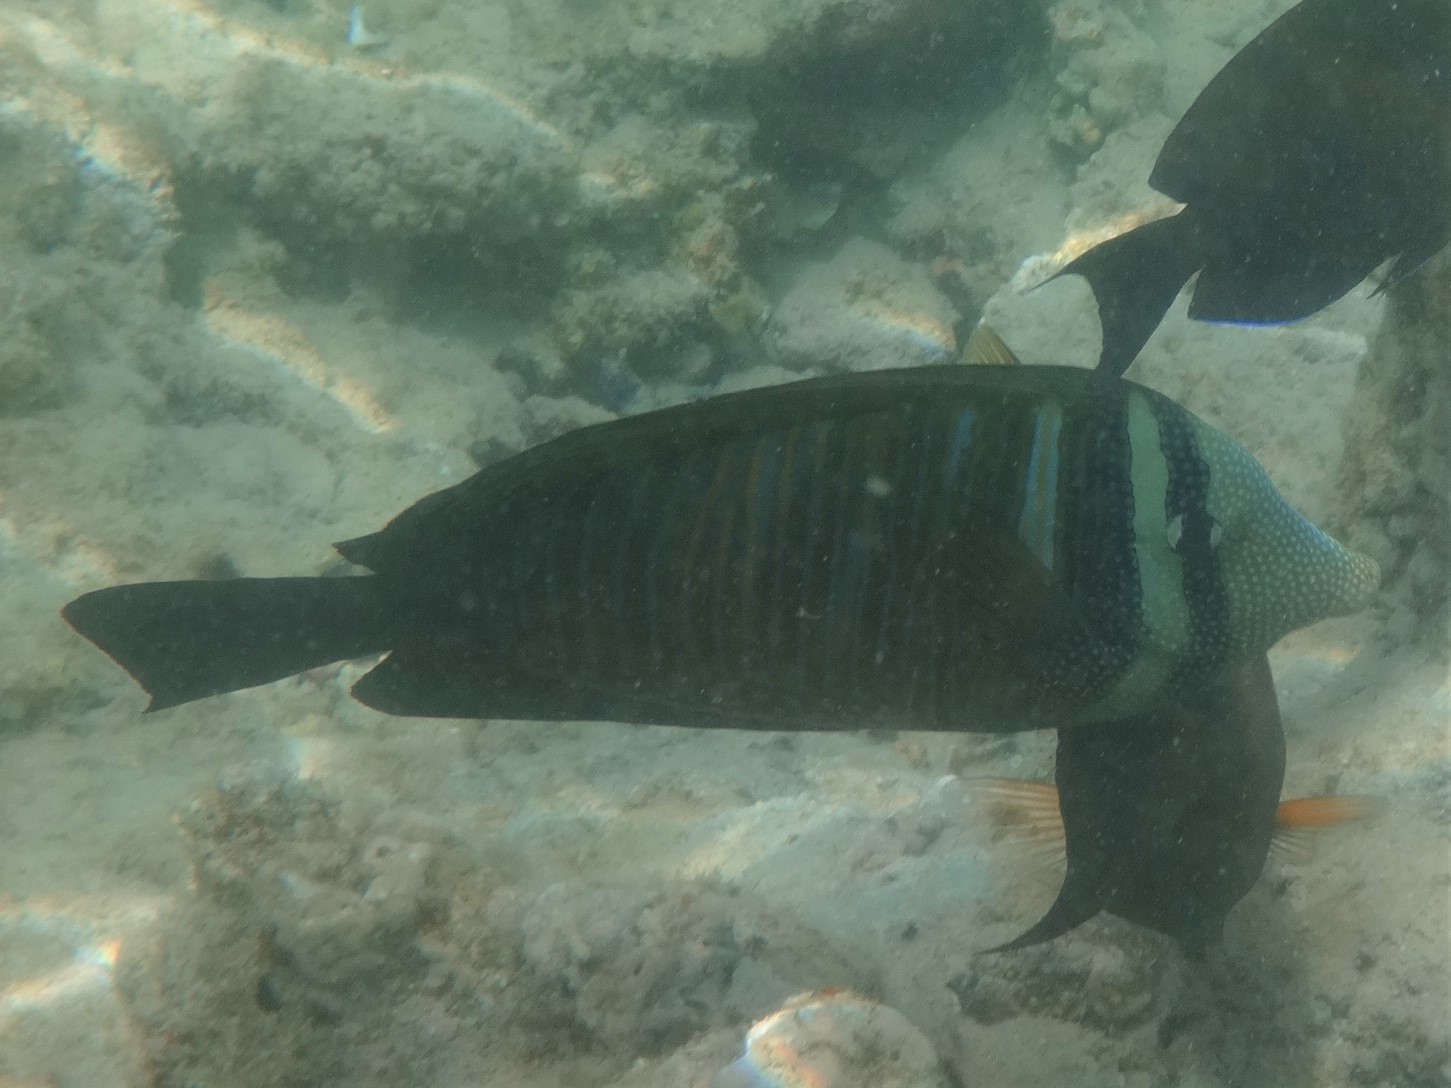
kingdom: Animalia
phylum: Chordata
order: Perciformes
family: Acanthuridae
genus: Zebrasoma
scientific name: Zebrasoma desjardinii
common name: Desjardin's sailfin tang
